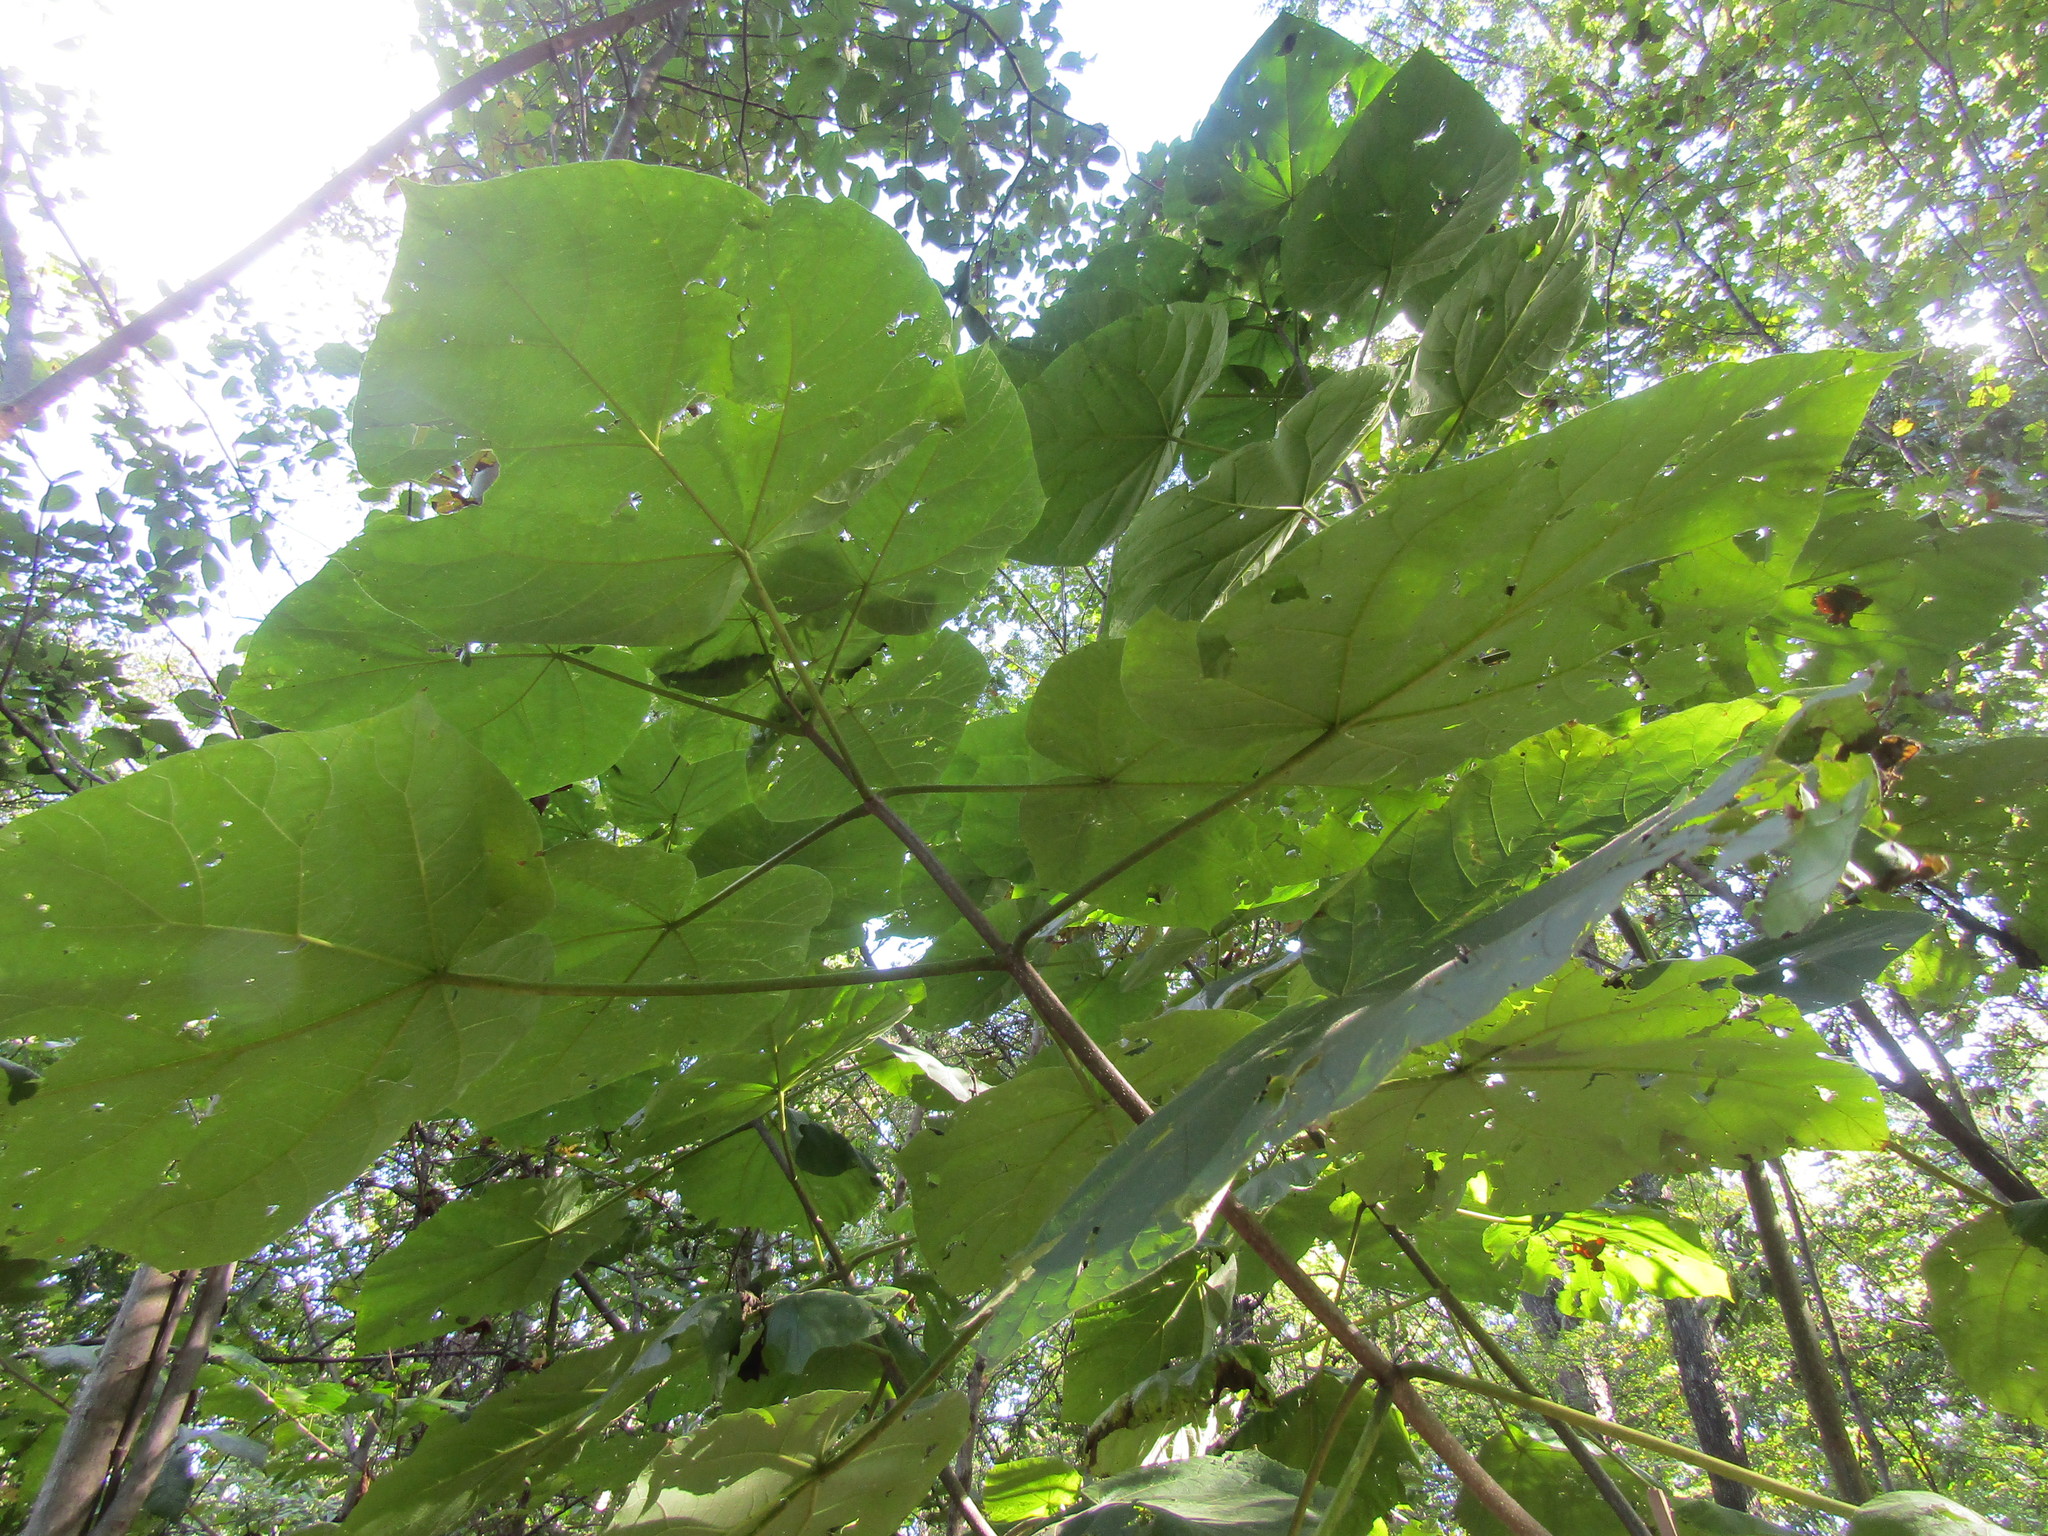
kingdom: Plantae
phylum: Tracheophyta
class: Magnoliopsida
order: Lamiales
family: Paulowniaceae
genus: Paulownia
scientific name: Paulownia tomentosa
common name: Foxglove-tree
